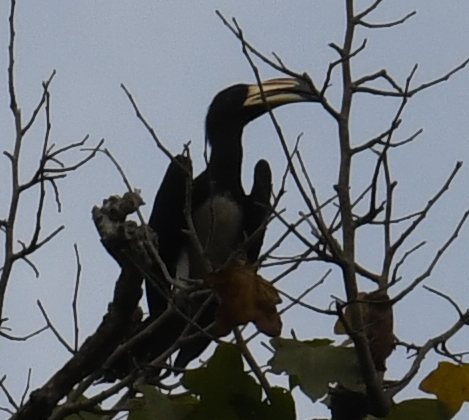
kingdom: Animalia
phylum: Chordata
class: Aves
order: Bucerotiformes
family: Bucerotidae
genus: Lophoceros
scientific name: Lophoceros fasciatus
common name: African pied hornbill
